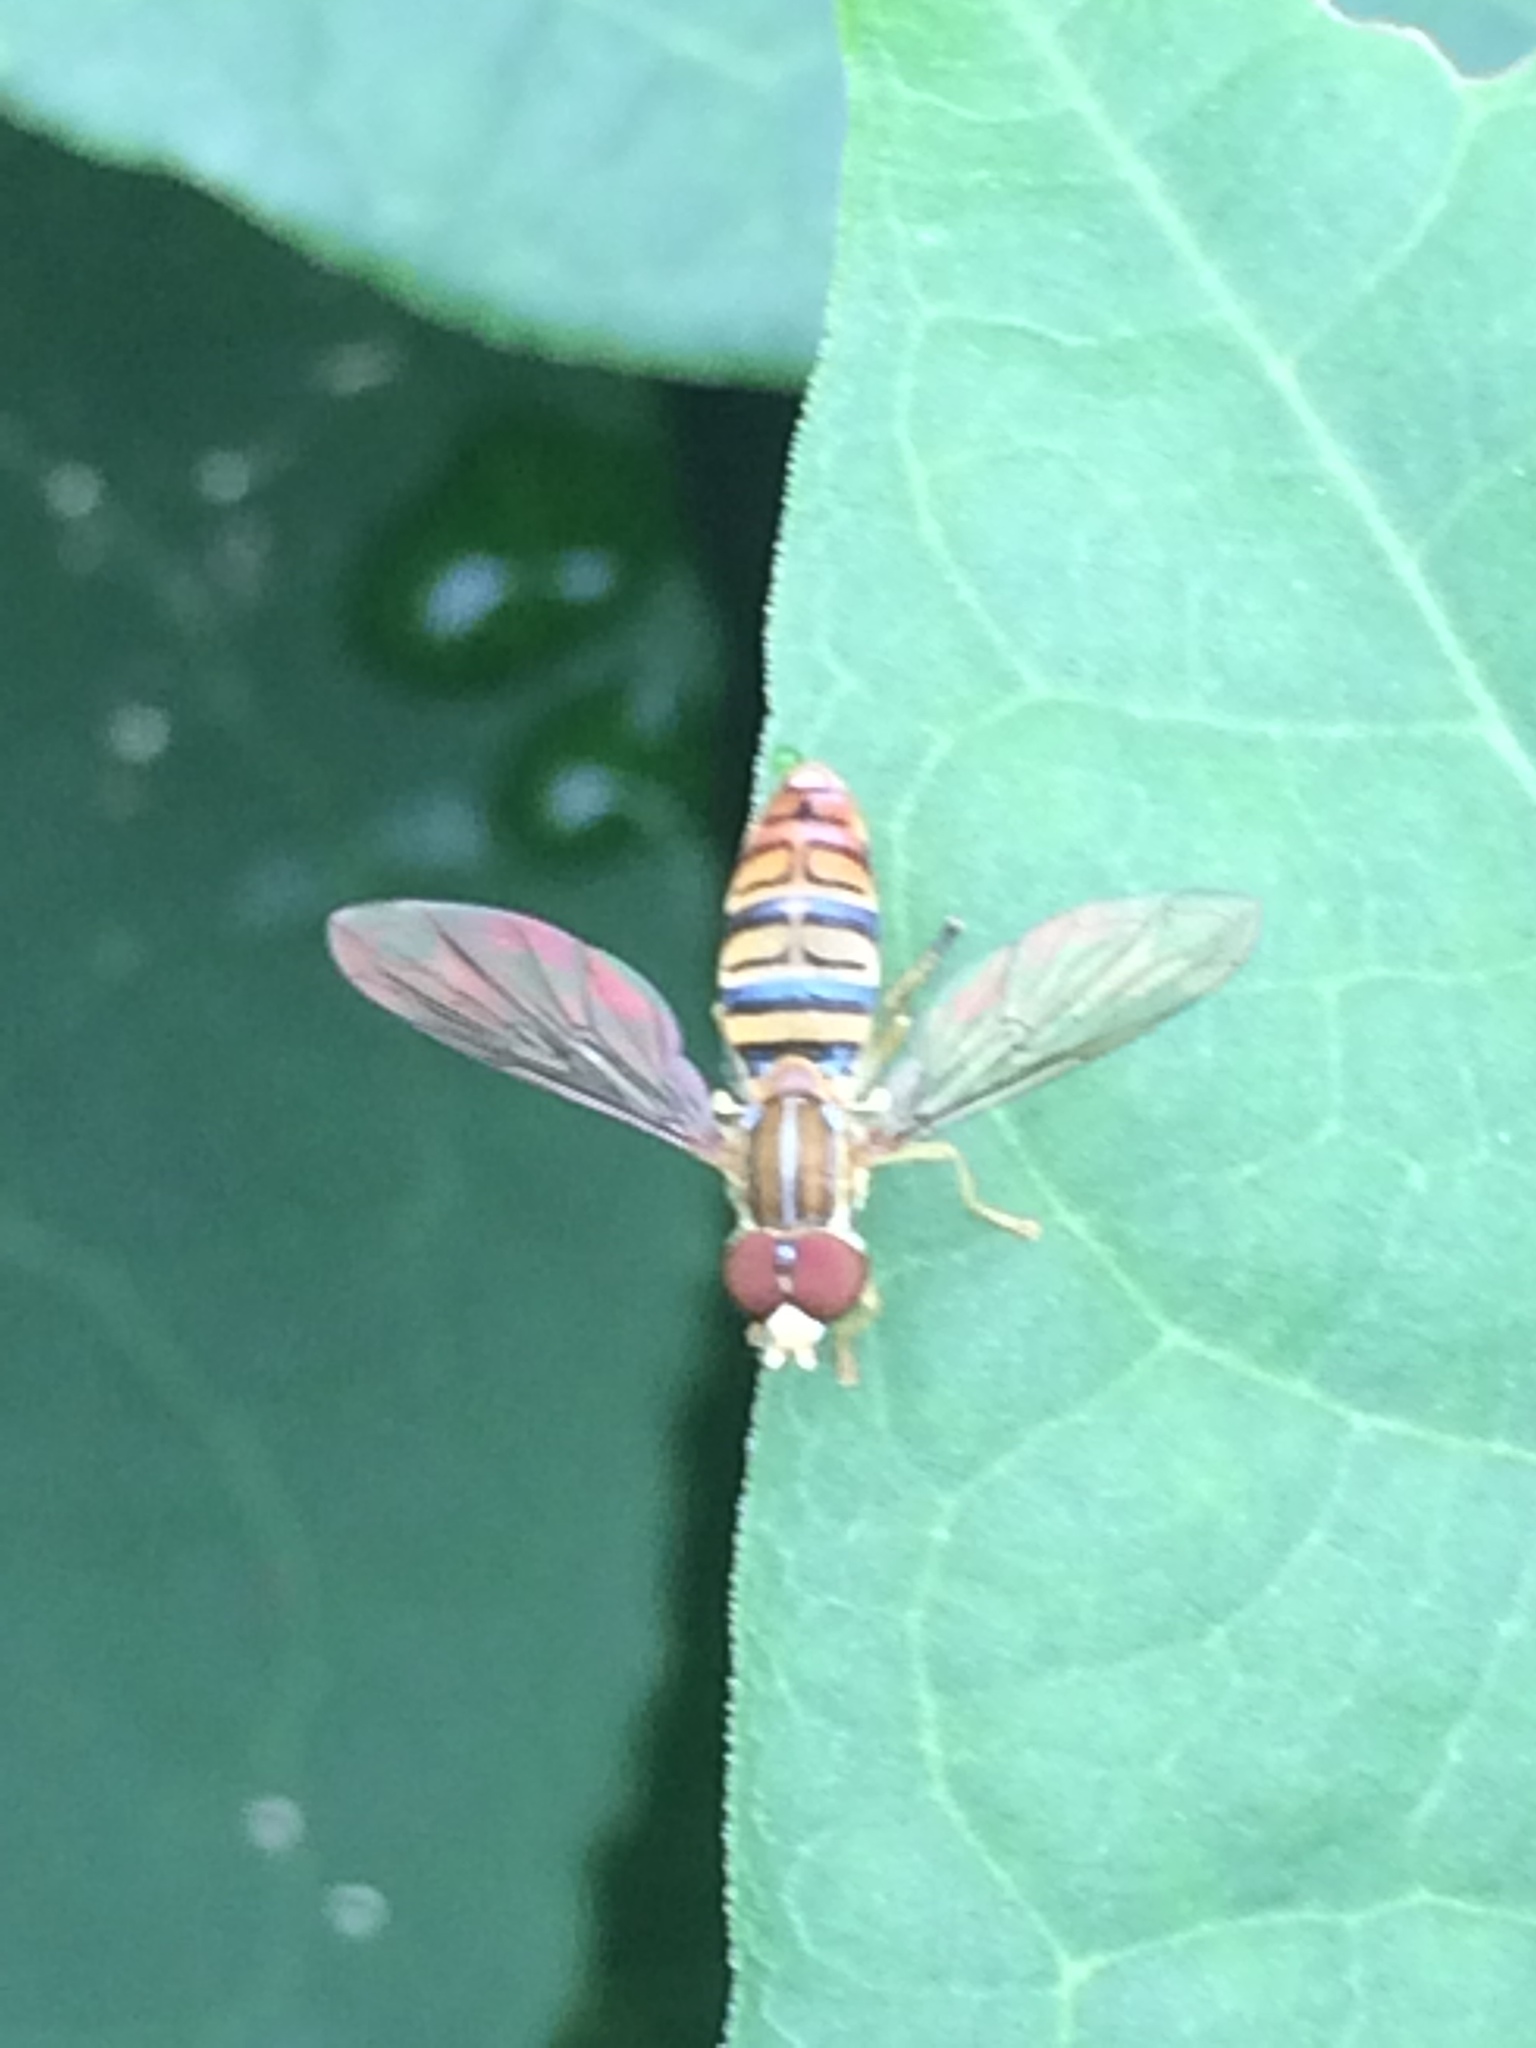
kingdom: Animalia
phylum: Arthropoda
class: Insecta
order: Diptera
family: Syrphidae
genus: Toxomerus
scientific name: Toxomerus politus
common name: Maize calligrapher
